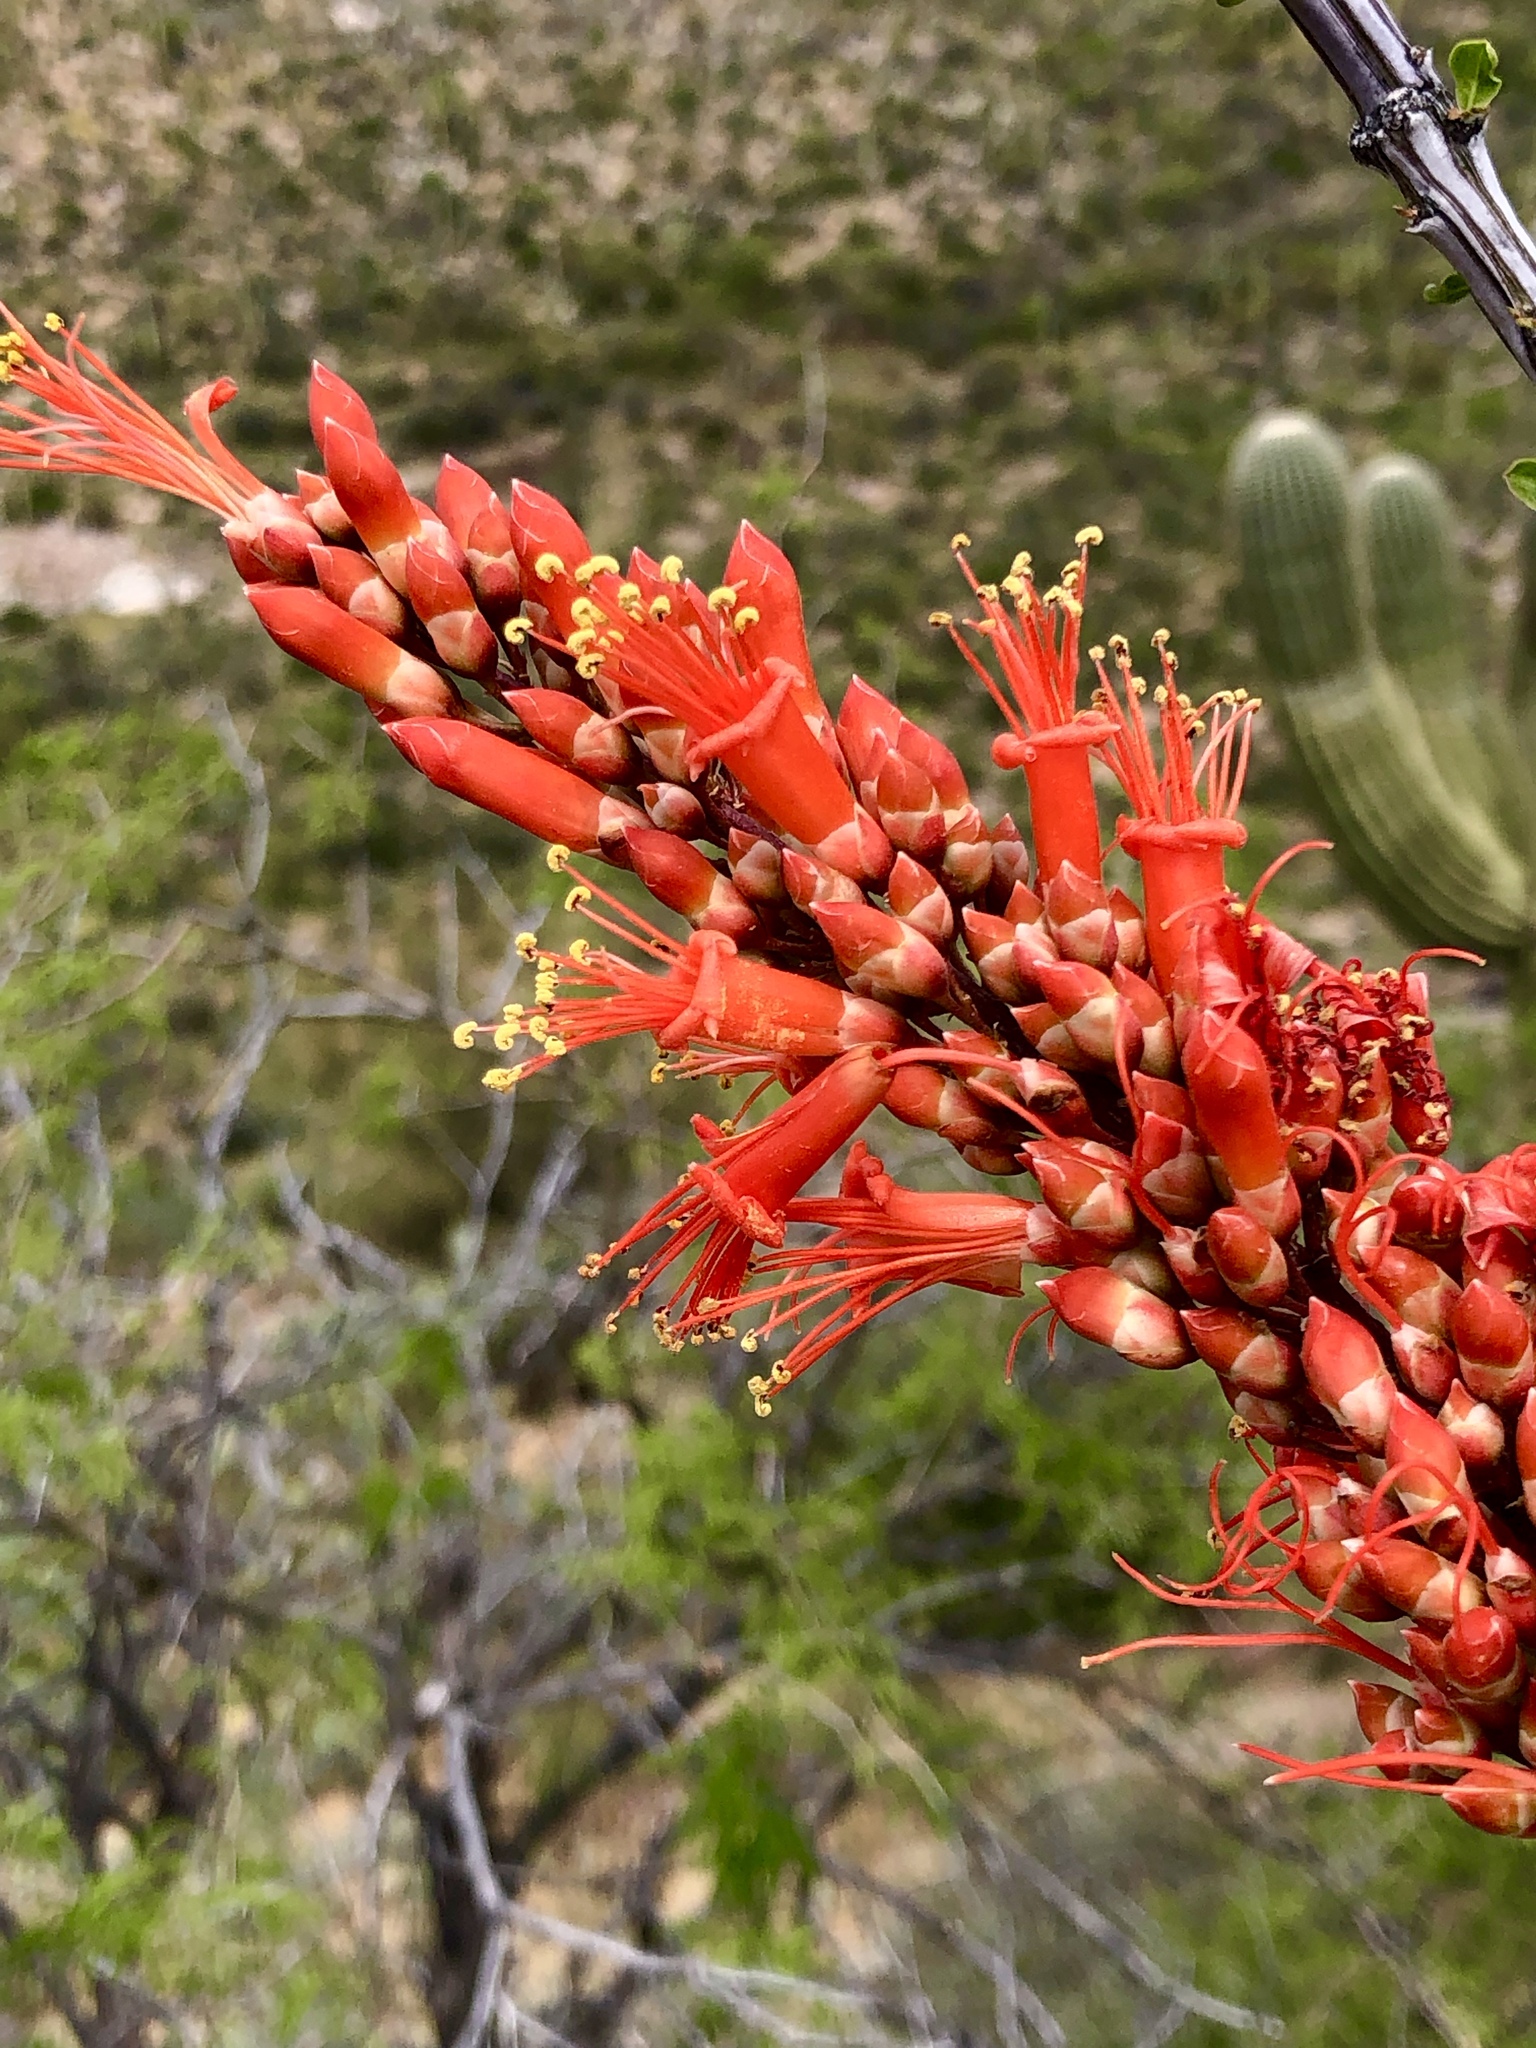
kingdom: Plantae
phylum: Tracheophyta
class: Magnoliopsida
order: Ericales
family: Fouquieriaceae
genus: Fouquieria
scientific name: Fouquieria splendens
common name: Vine-cactus
